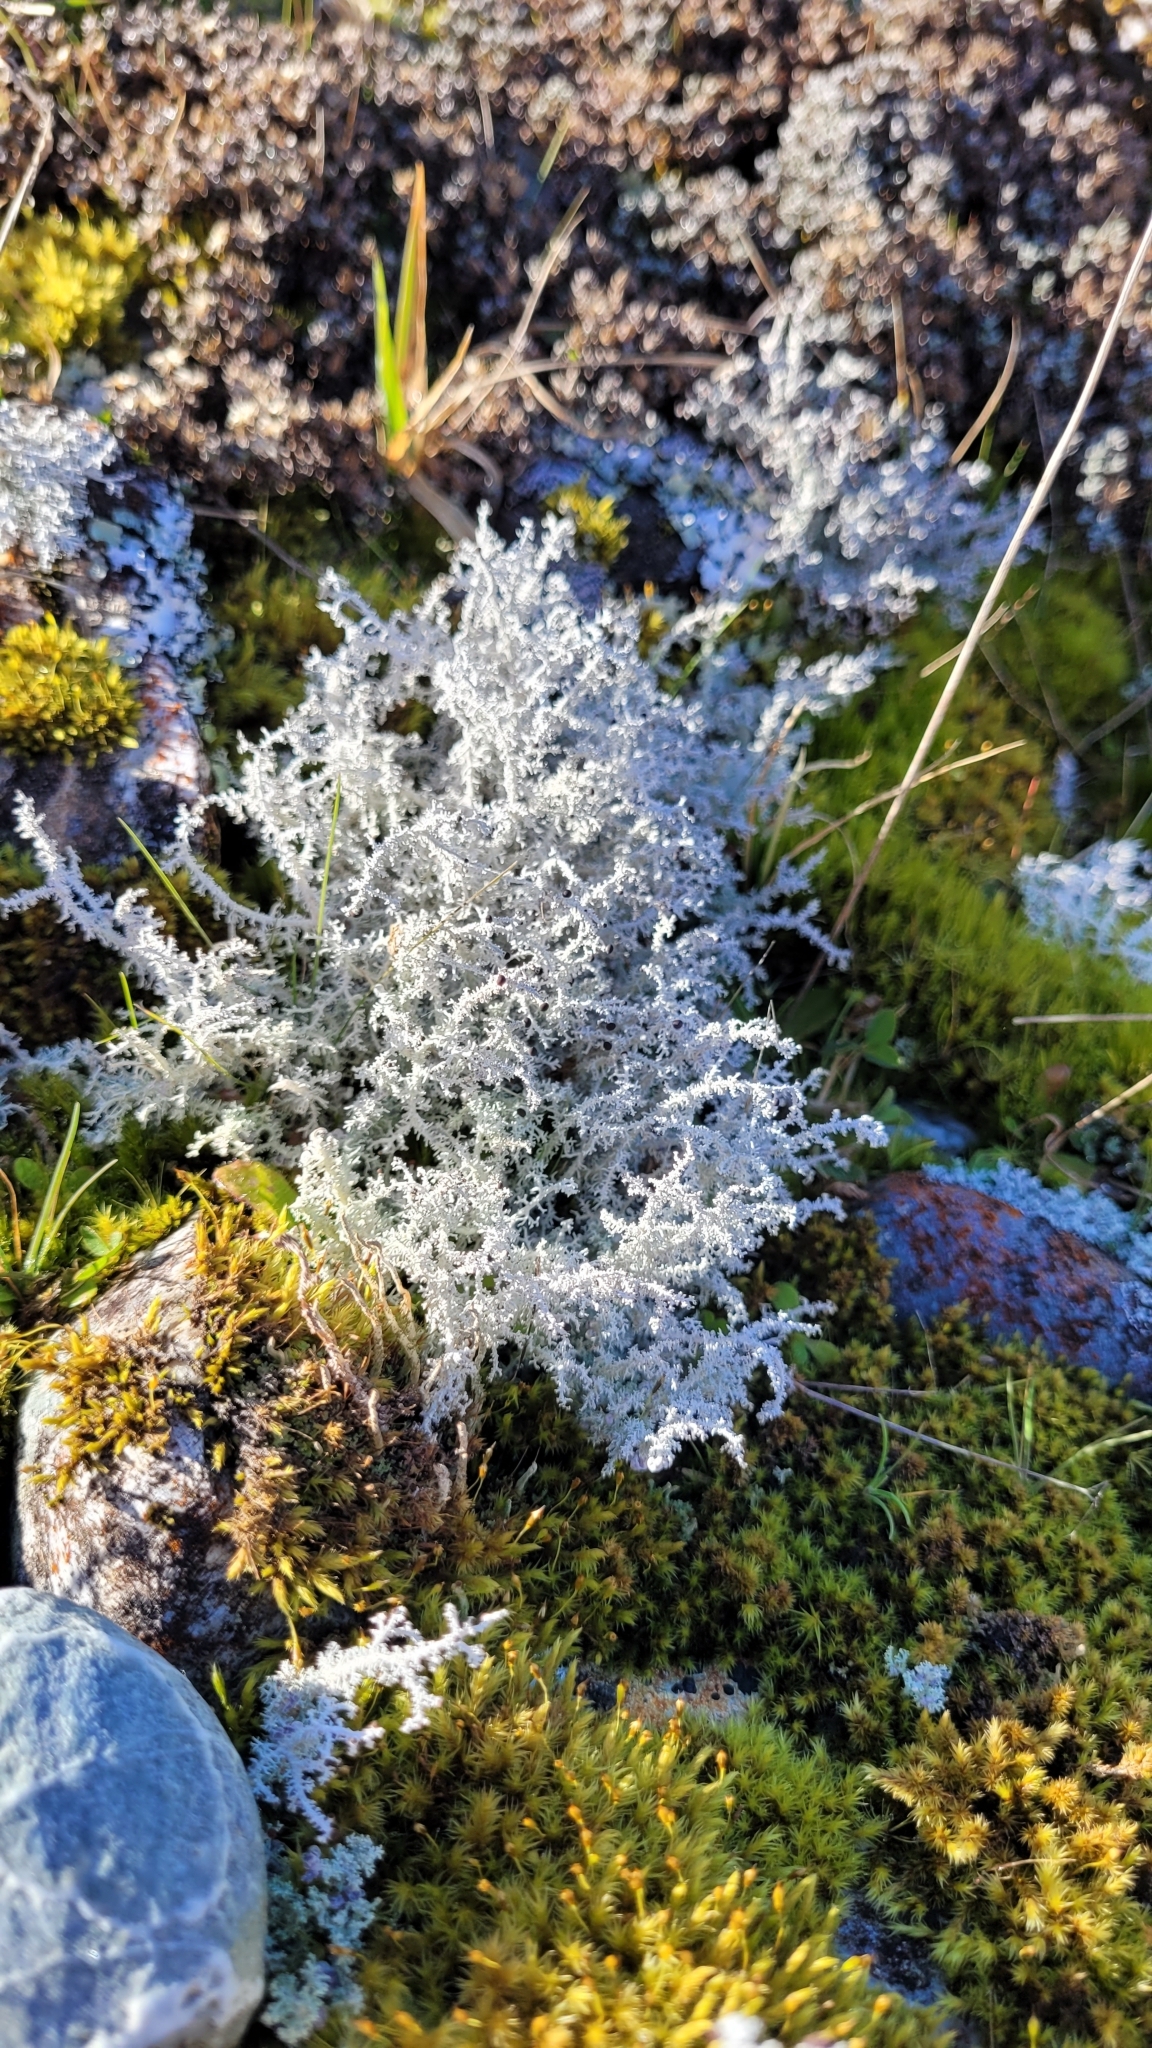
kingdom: Fungi
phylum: Ascomycota
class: Lecanoromycetes
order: Lecanorales
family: Stereocaulaceae
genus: Stereocaulon
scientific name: Stereocaulon ramulosum
